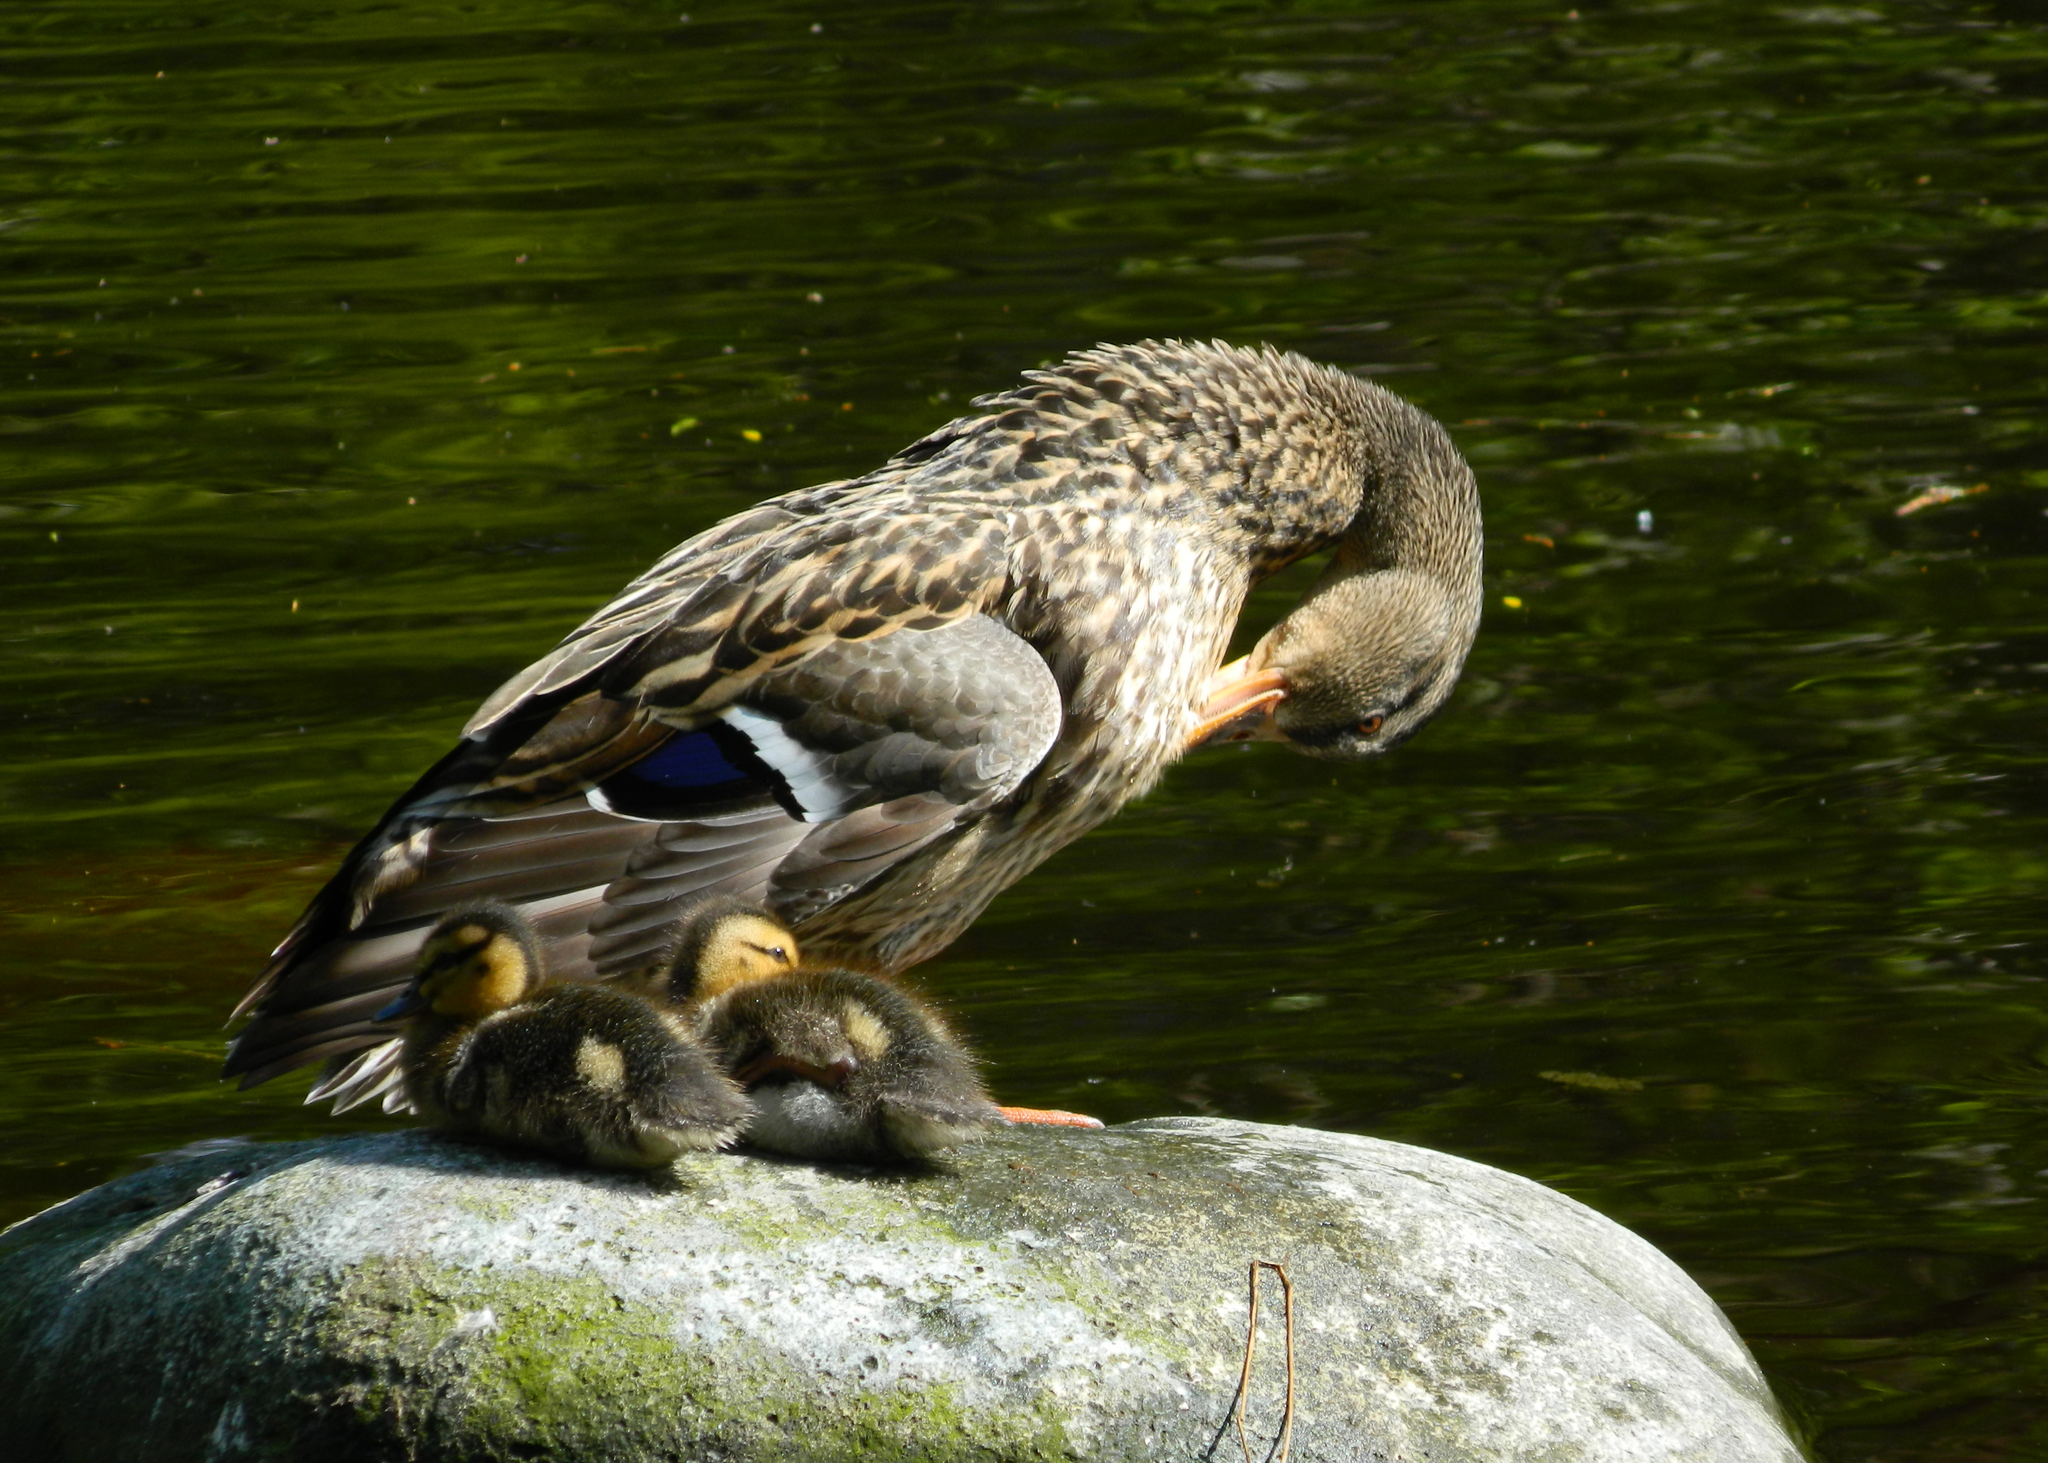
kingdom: Animalia
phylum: Chordata
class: Aves
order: Anseriformes
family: Anatidae
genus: Anas
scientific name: Anas platyrhynchos
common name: Mallard
